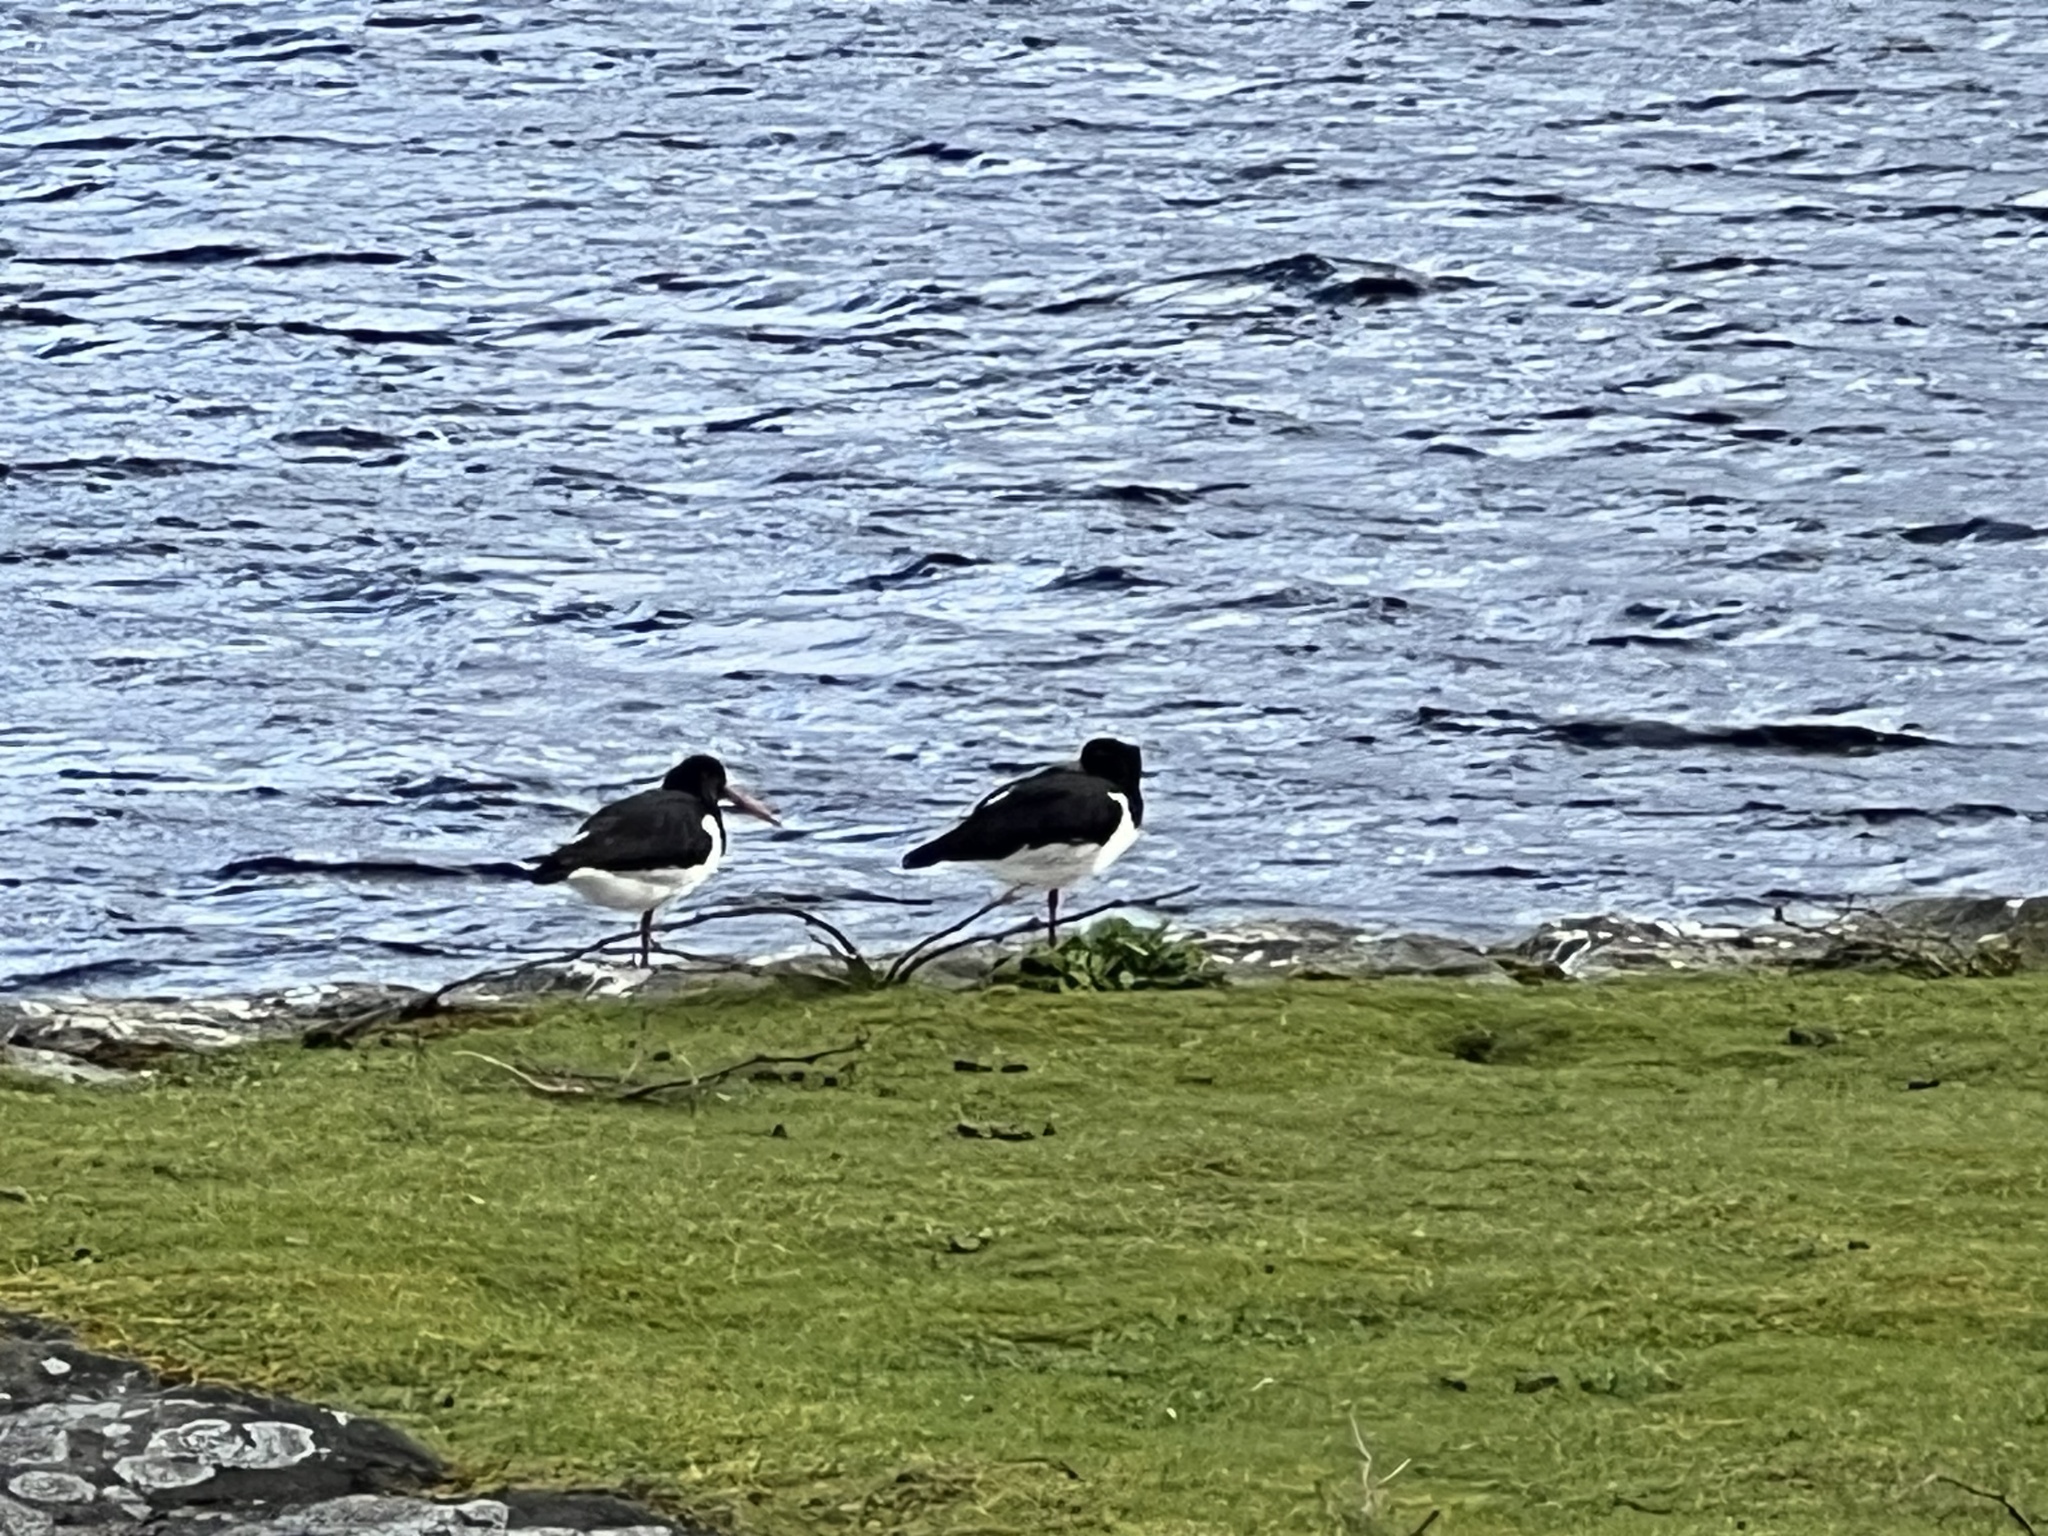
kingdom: Animalia
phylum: Chordata
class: Aves
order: Charadriiformes
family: Haematopodidae
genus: Haematopus
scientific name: Haematopus ostralegus
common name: Eurasian oystercatcher
